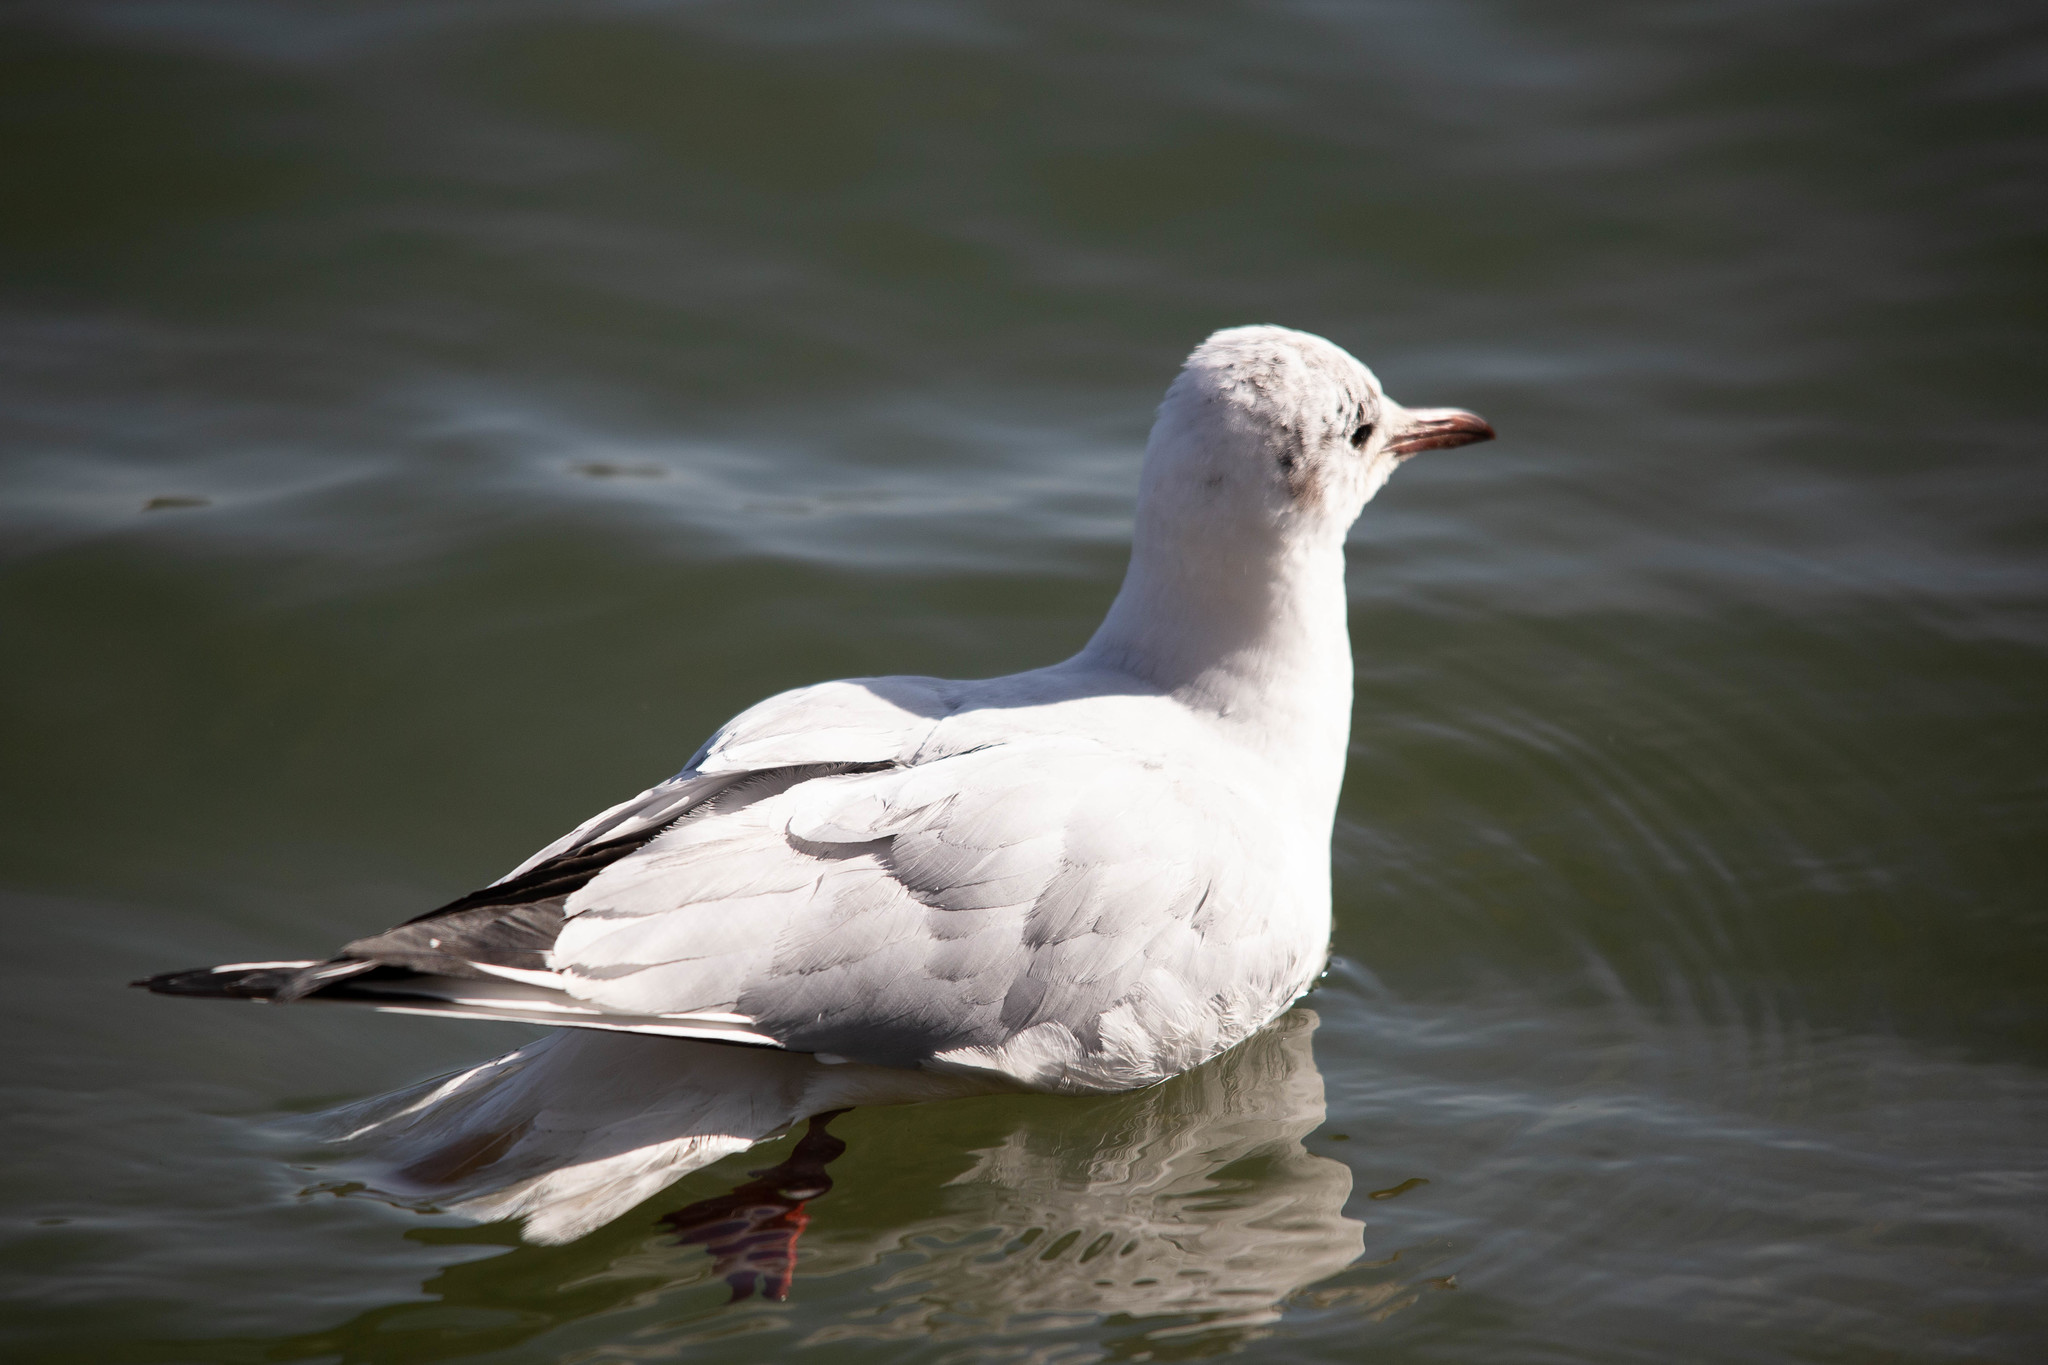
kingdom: Animalia
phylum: Chordata
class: Aves
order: Charadriiformes
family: Laridae
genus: Chroicocephalus
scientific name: Chroicocephalus ridibundus
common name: Black-headed gull
